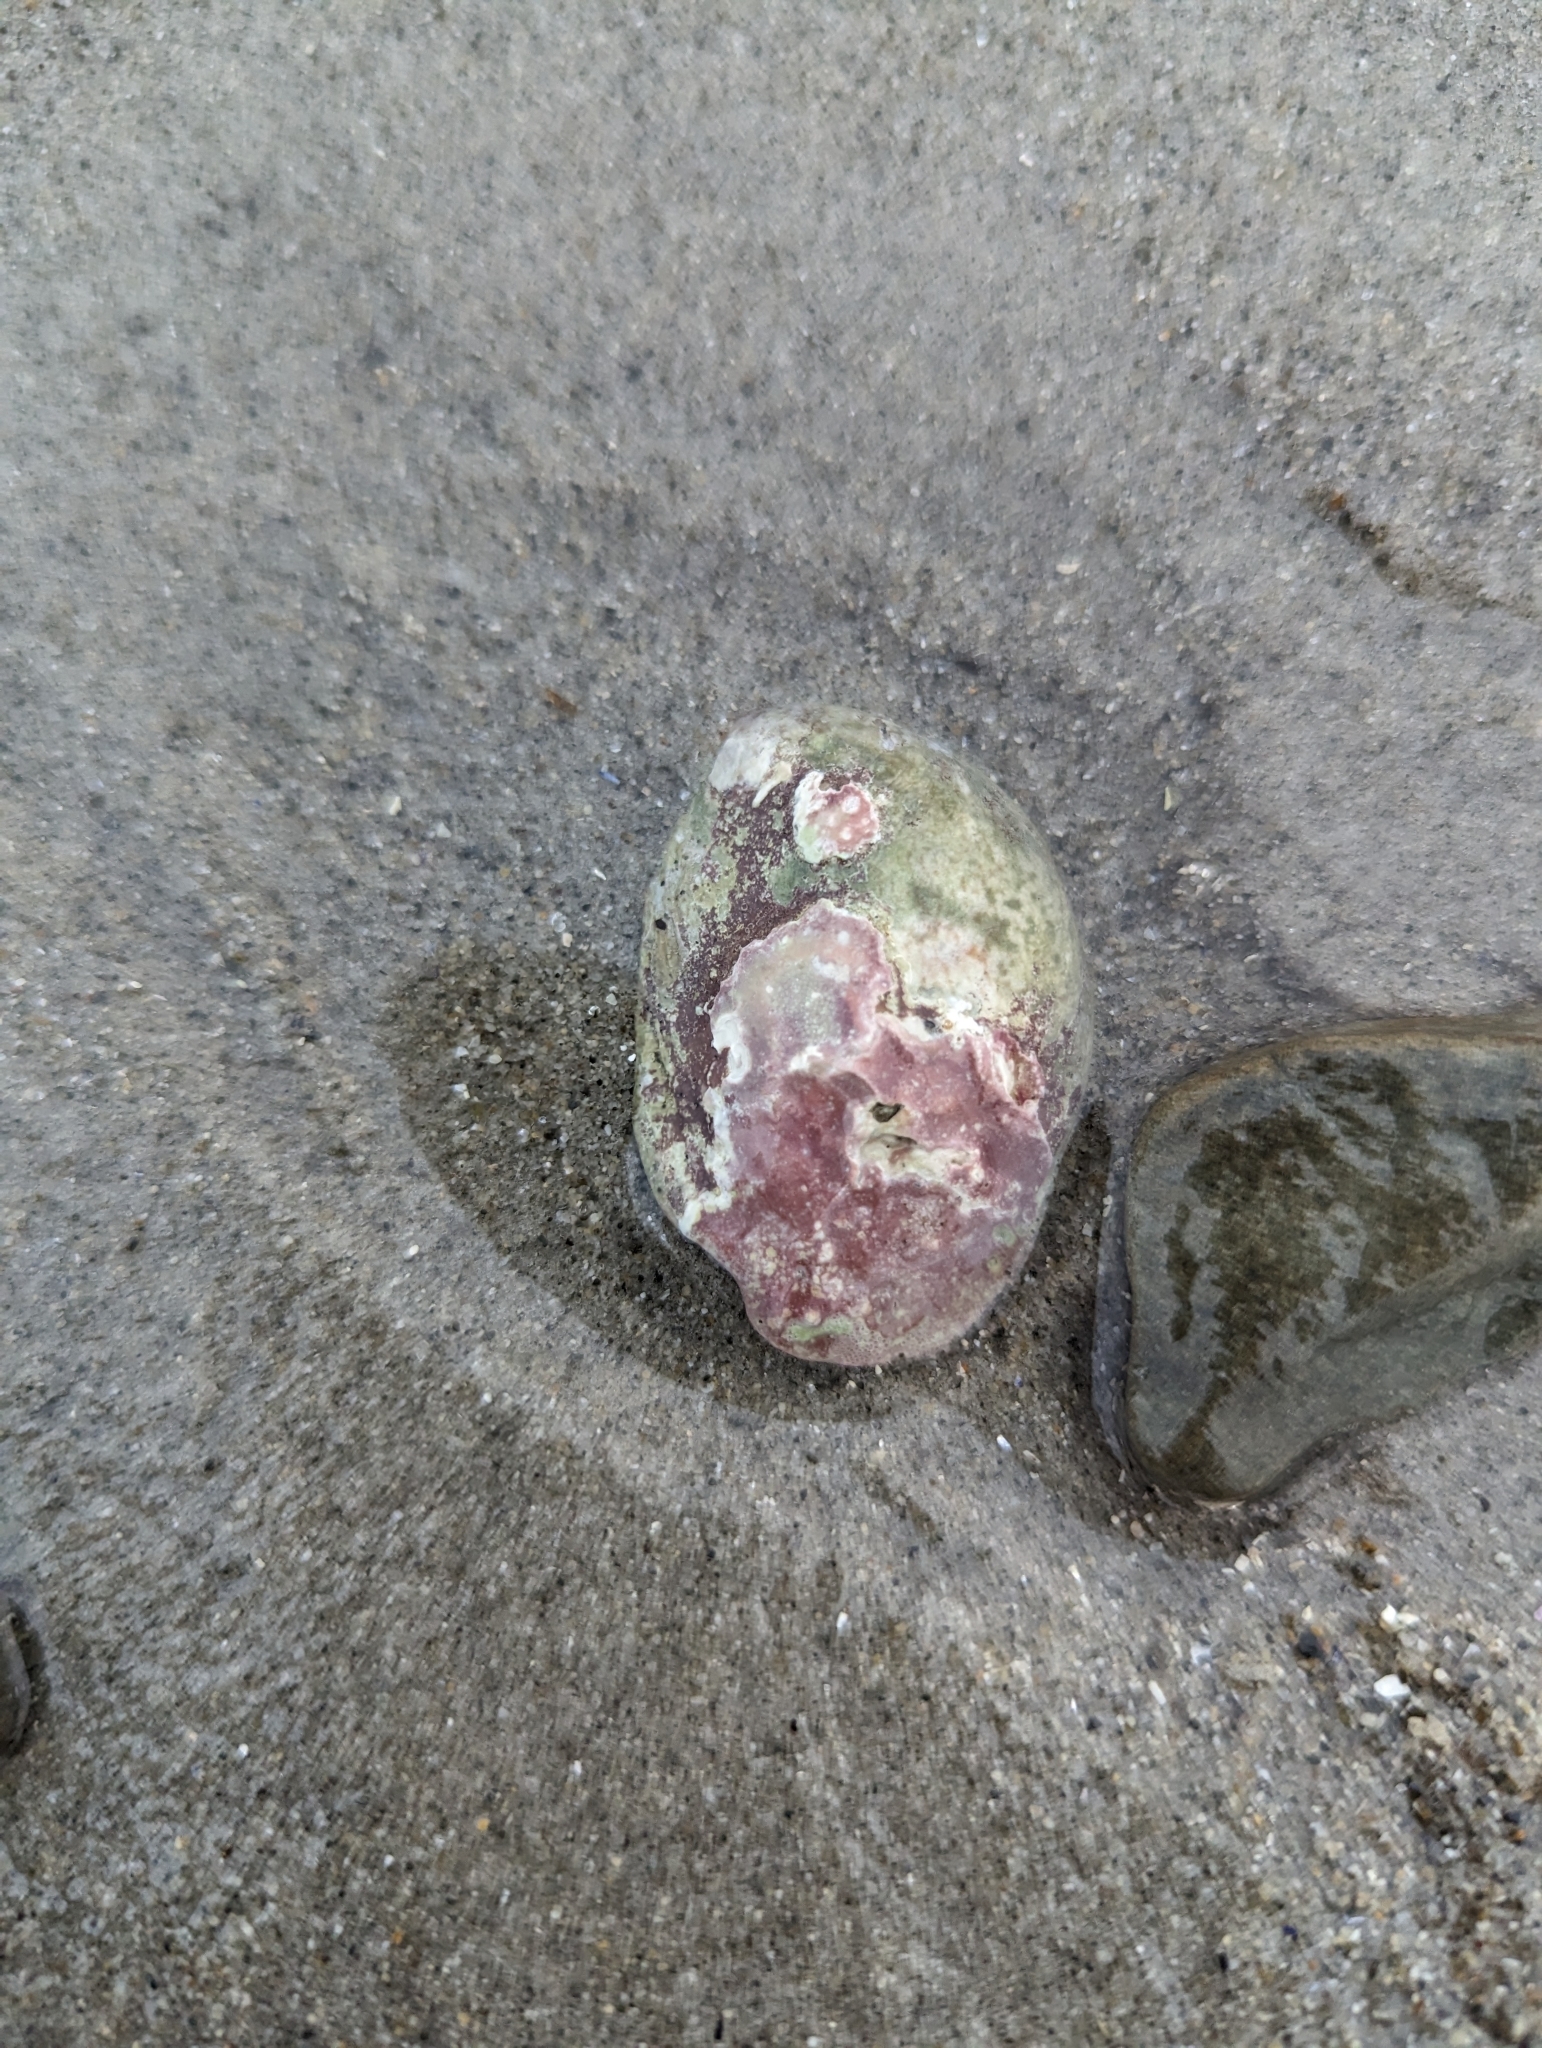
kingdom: Animalia
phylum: Mollusca
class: Gastropoda
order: Littorinimorpha
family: Calyptraeidae
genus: Crepidula
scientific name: Crepidula fornicata
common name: Slipper limpet
